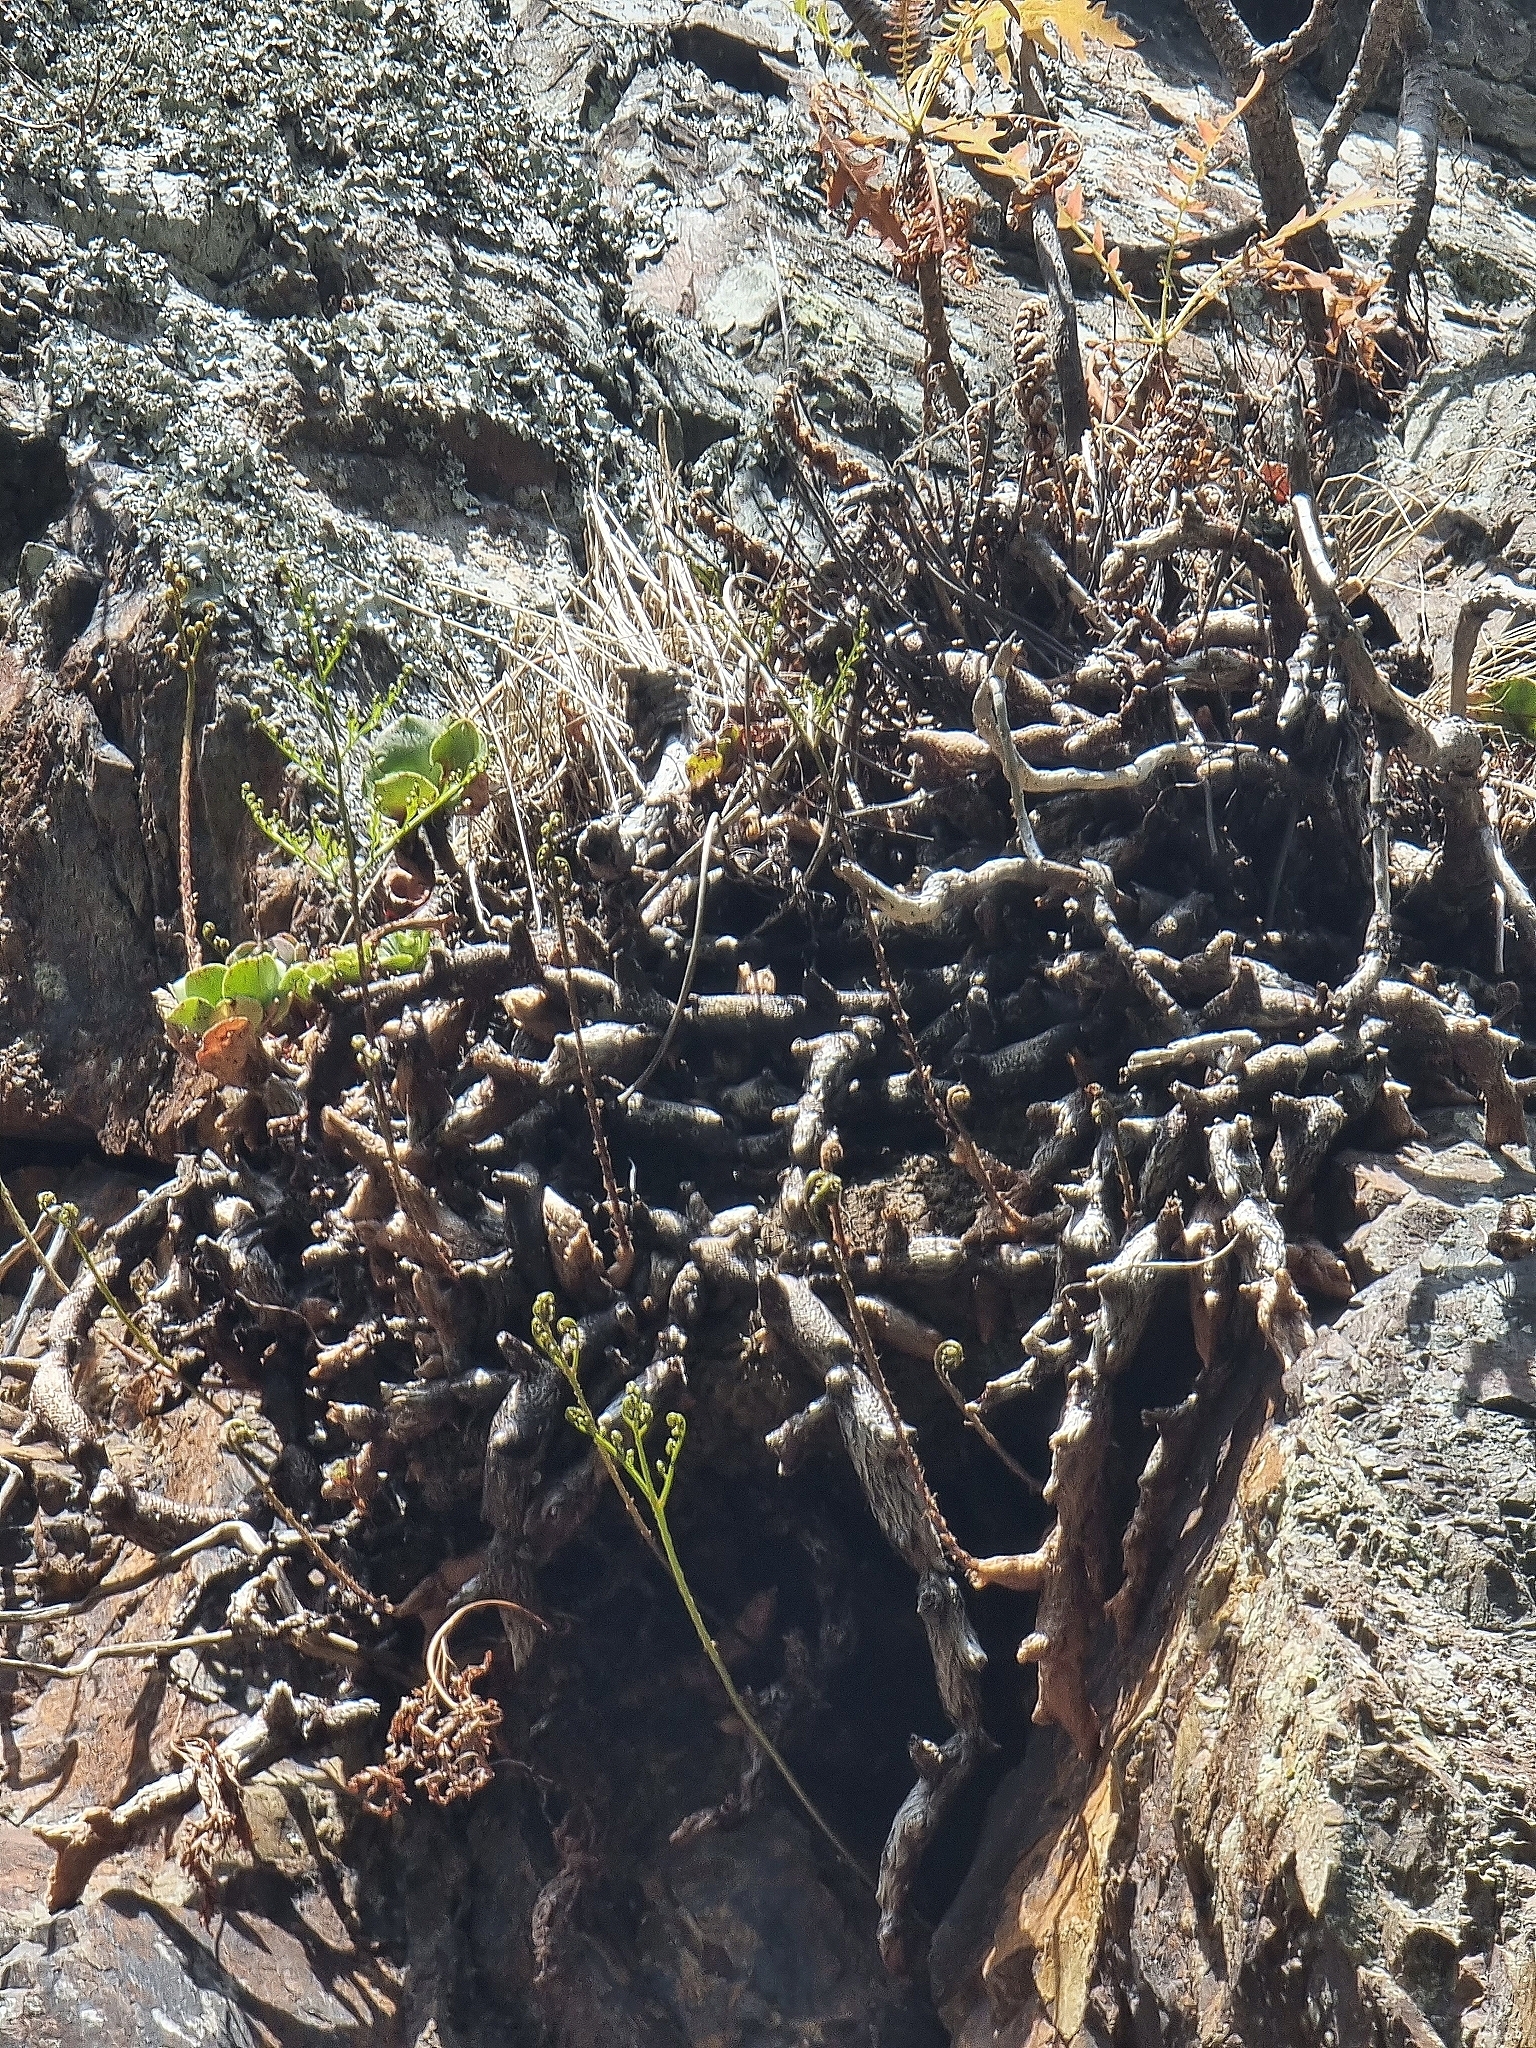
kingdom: Plantae
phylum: Tracheophyta
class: Polypodiopsida
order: Polypodiales
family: Davalliaceae
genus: Davallia
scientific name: Davallia canariensis
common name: Hare's-foot fern
